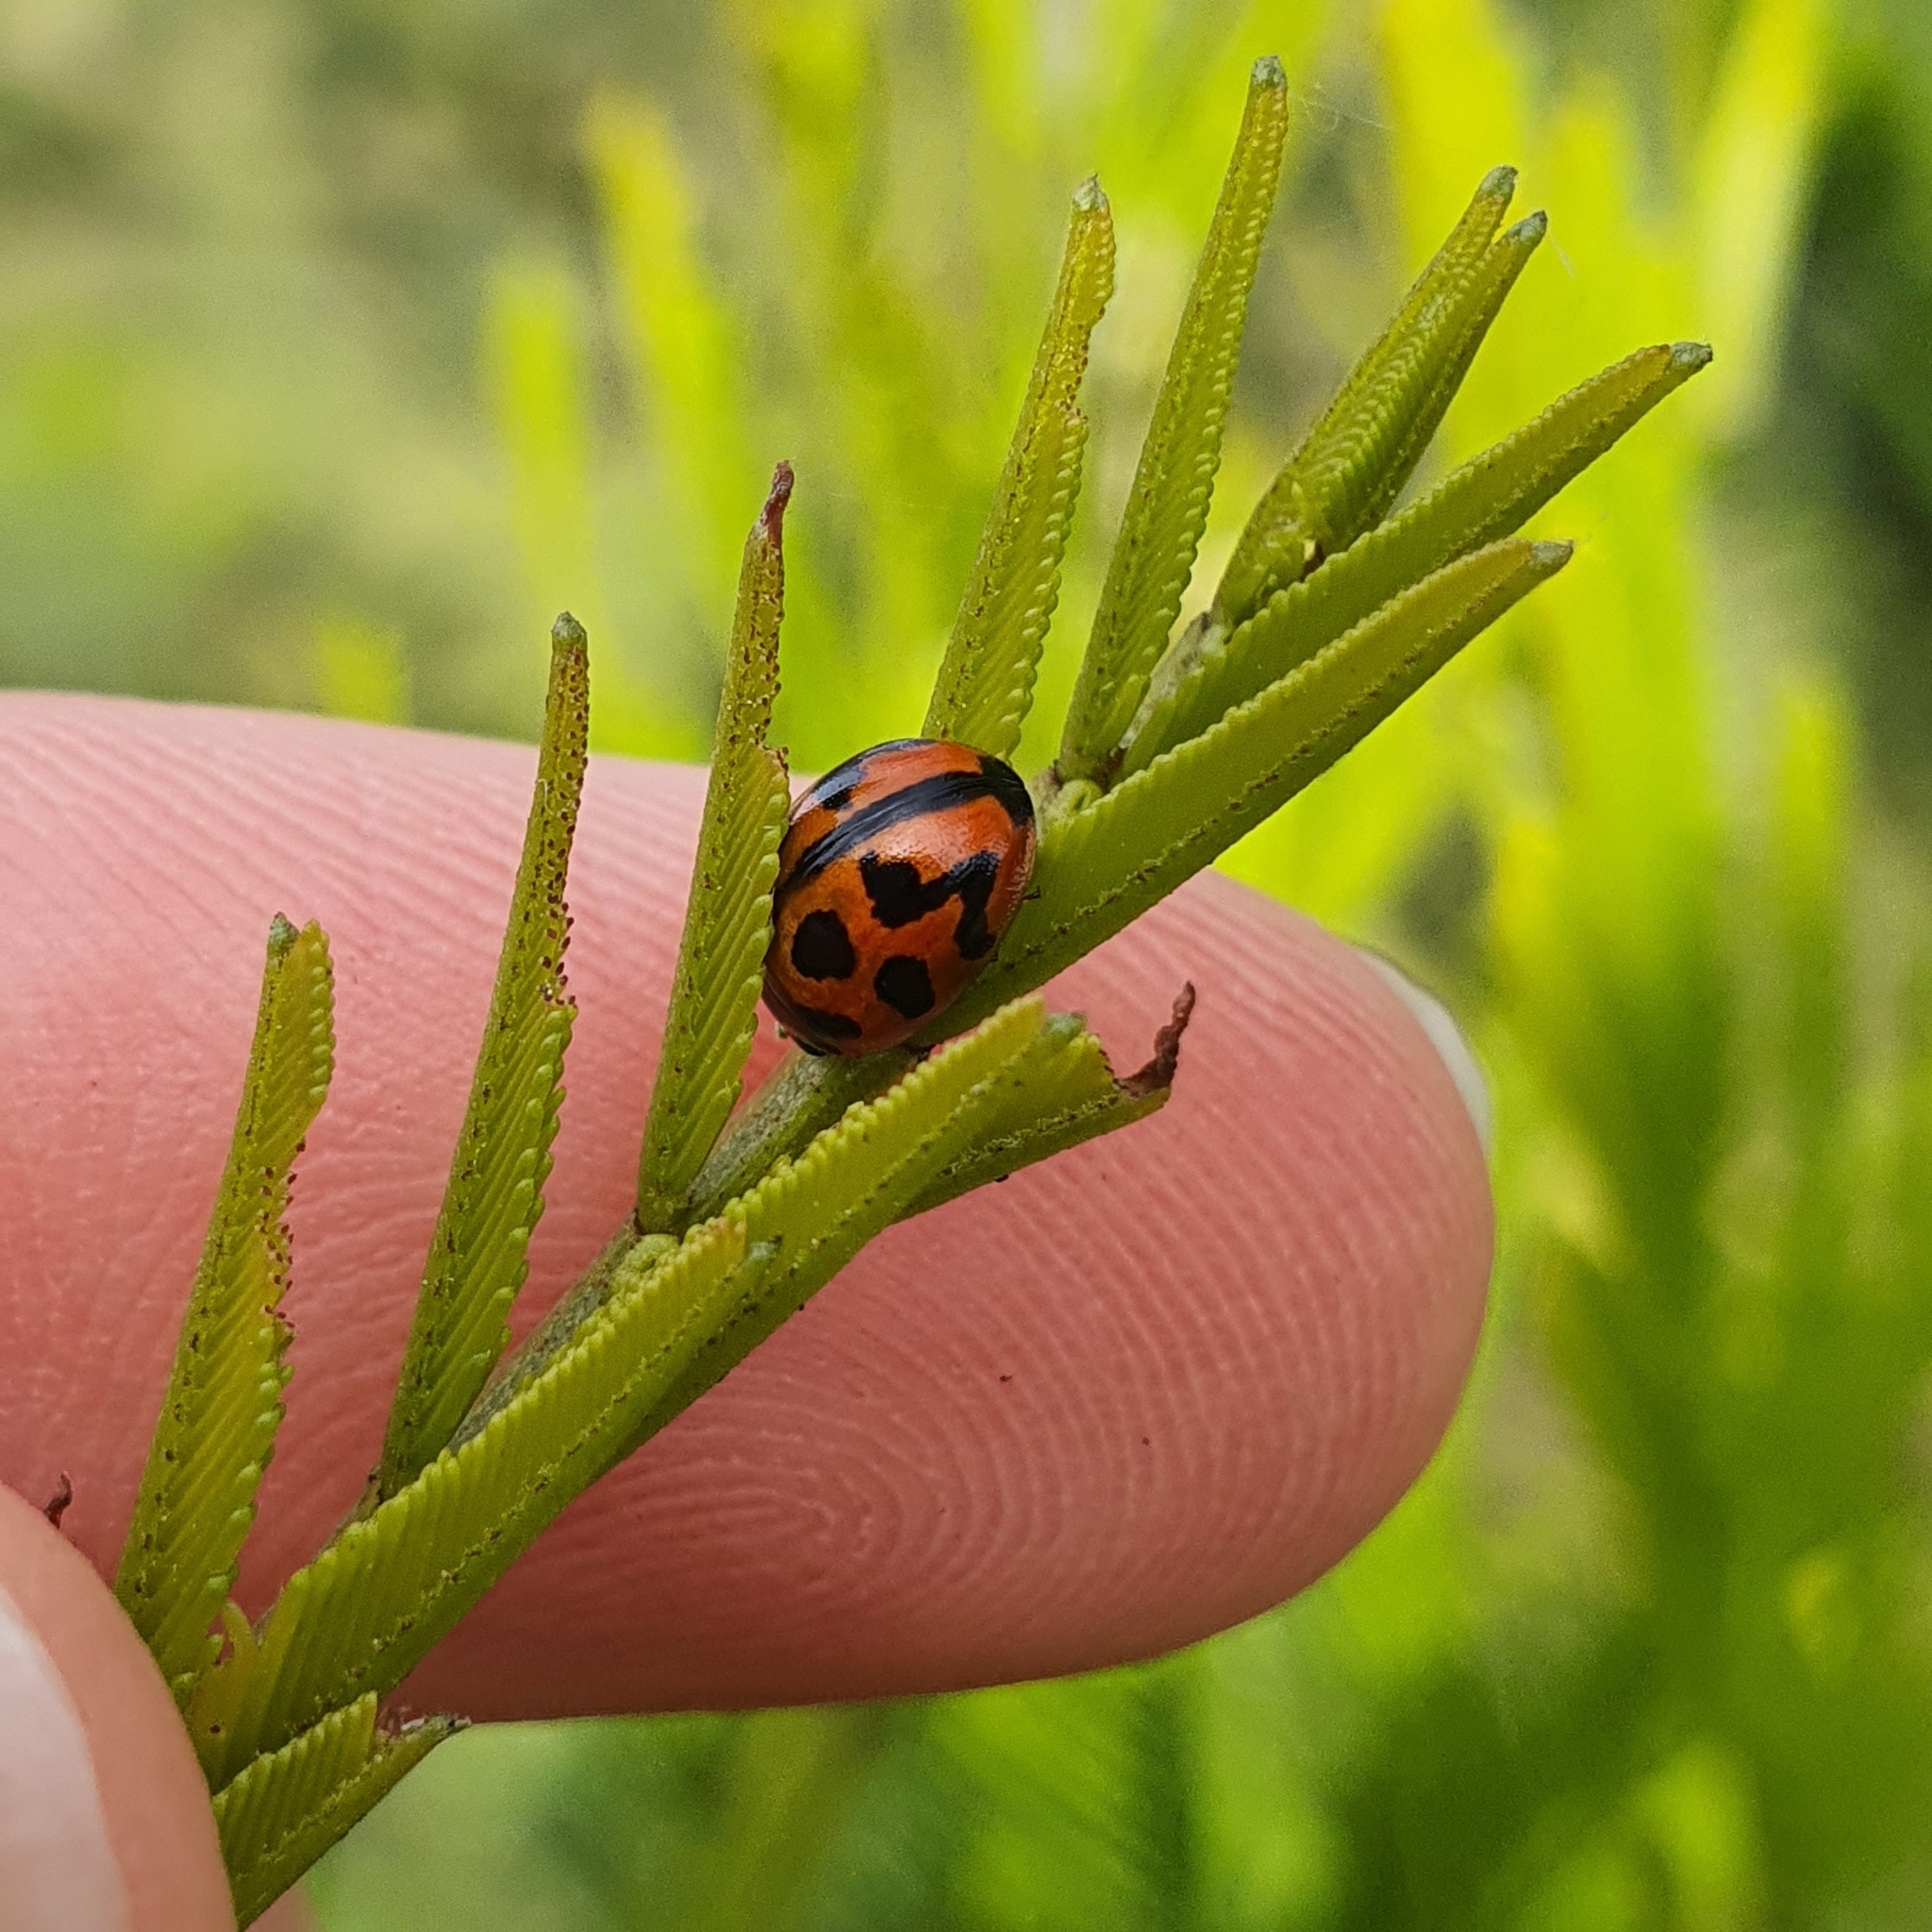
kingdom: Animalia
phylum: Arthropoda
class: Insecta
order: Coleoptera
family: Chrysomelidae
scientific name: Chrysomelidae
